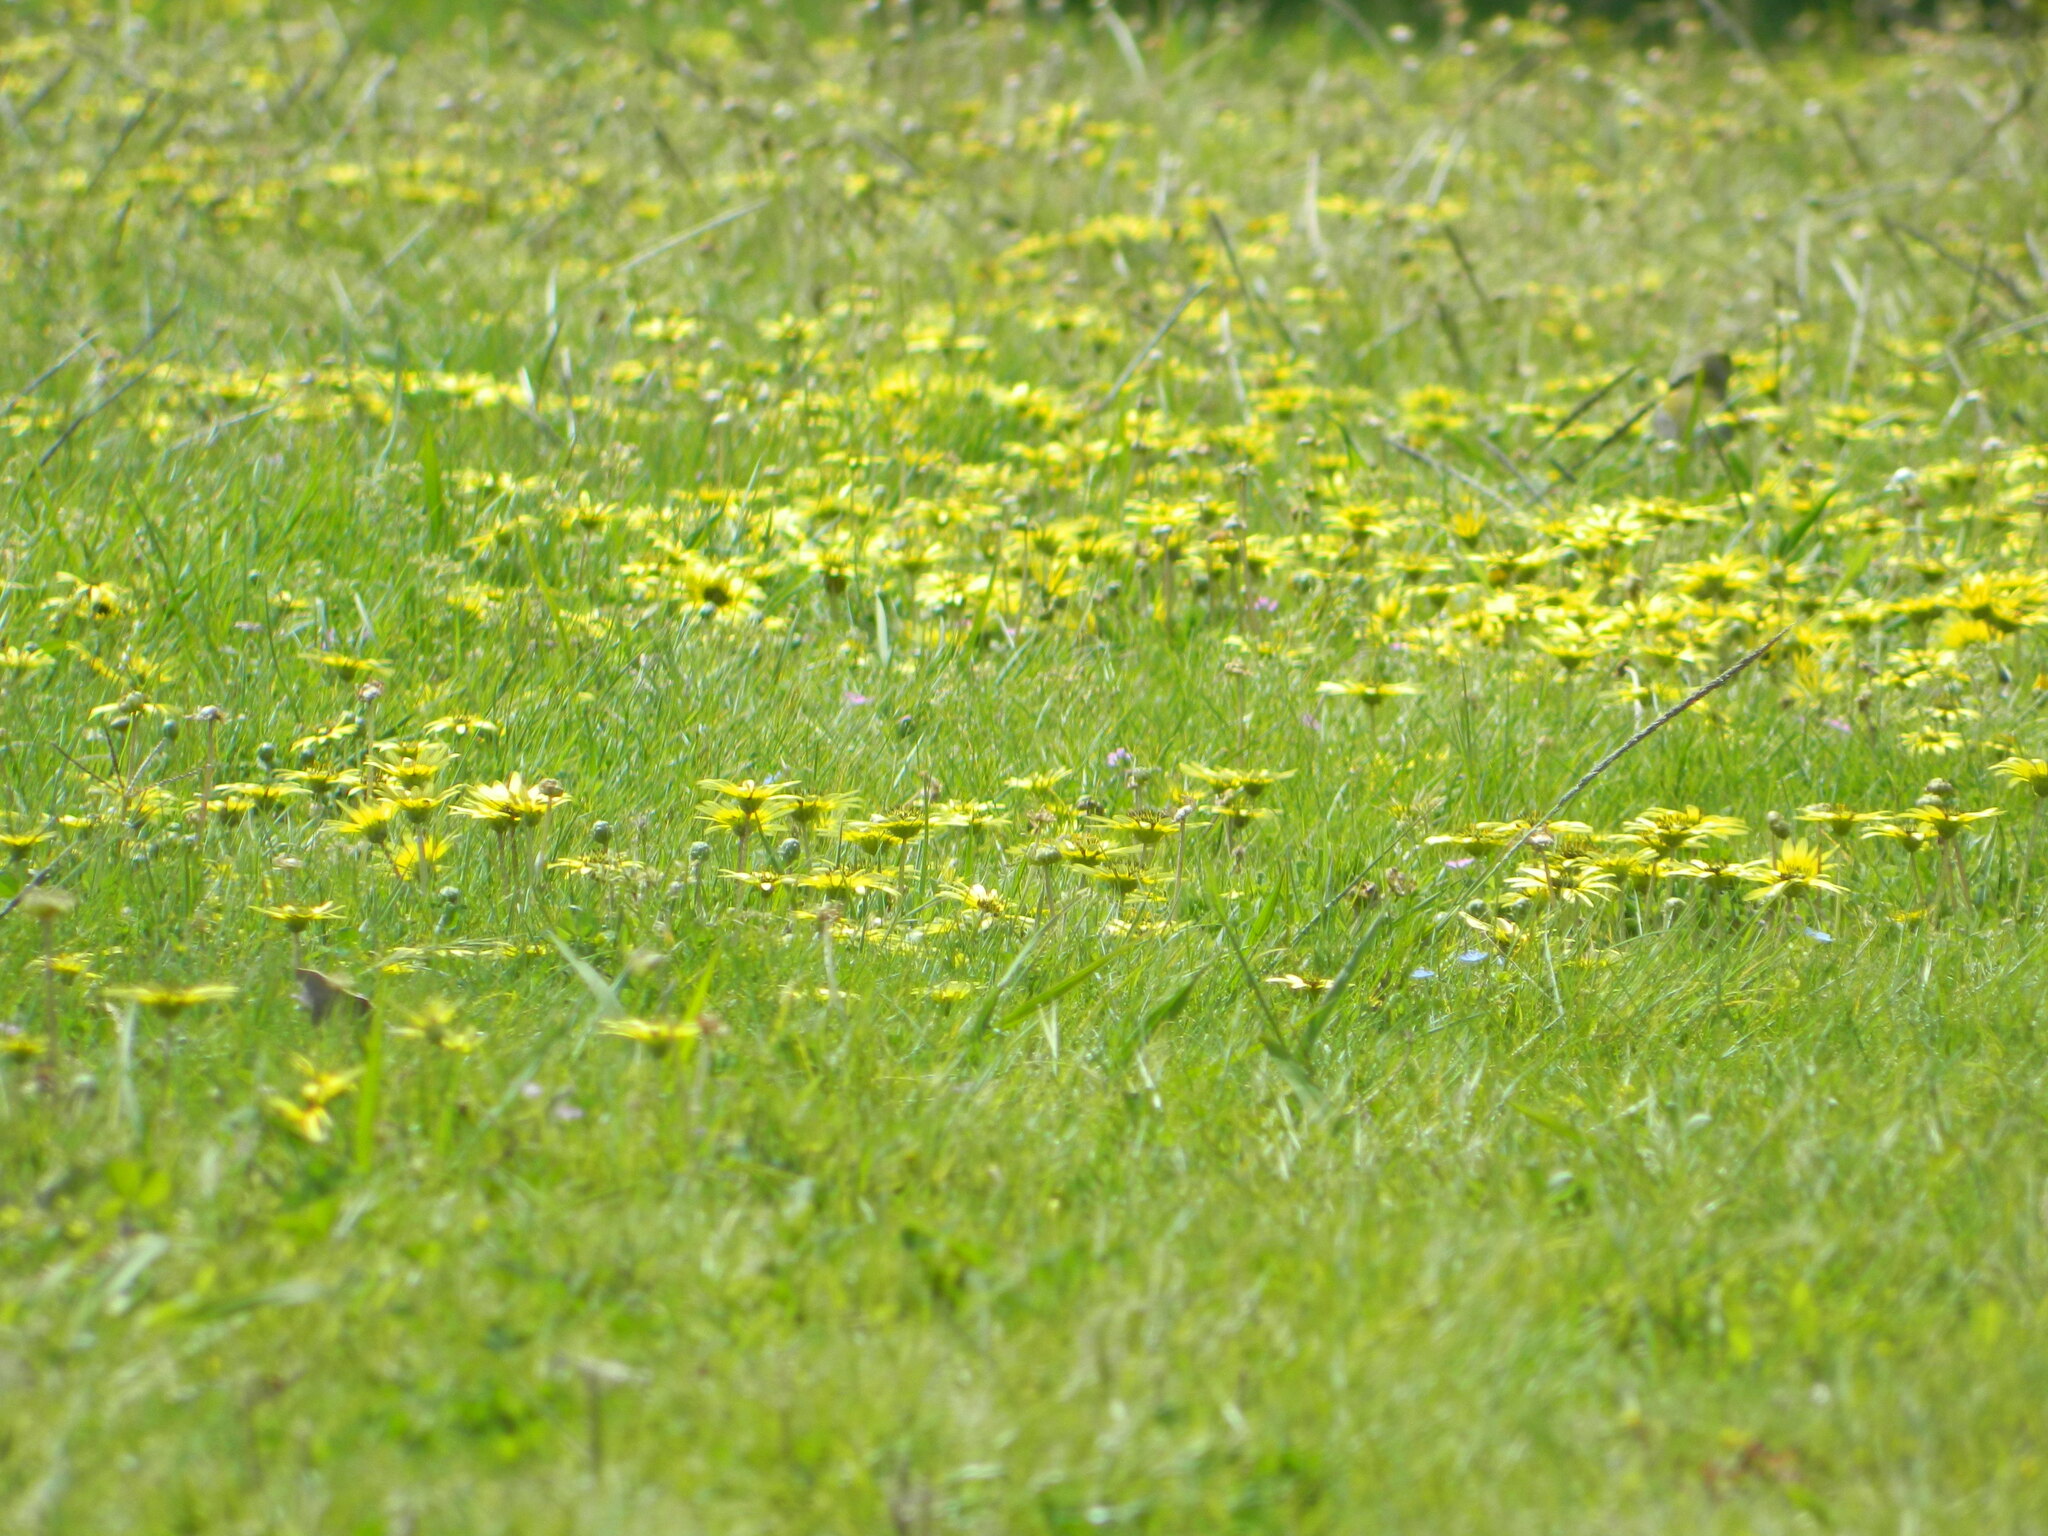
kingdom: Plantae
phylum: Tracheophyta
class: Magnoliopsida
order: Asterales
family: Asteraceae
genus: Arctotheca
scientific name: Arctotheca calendula
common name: Capeweed
